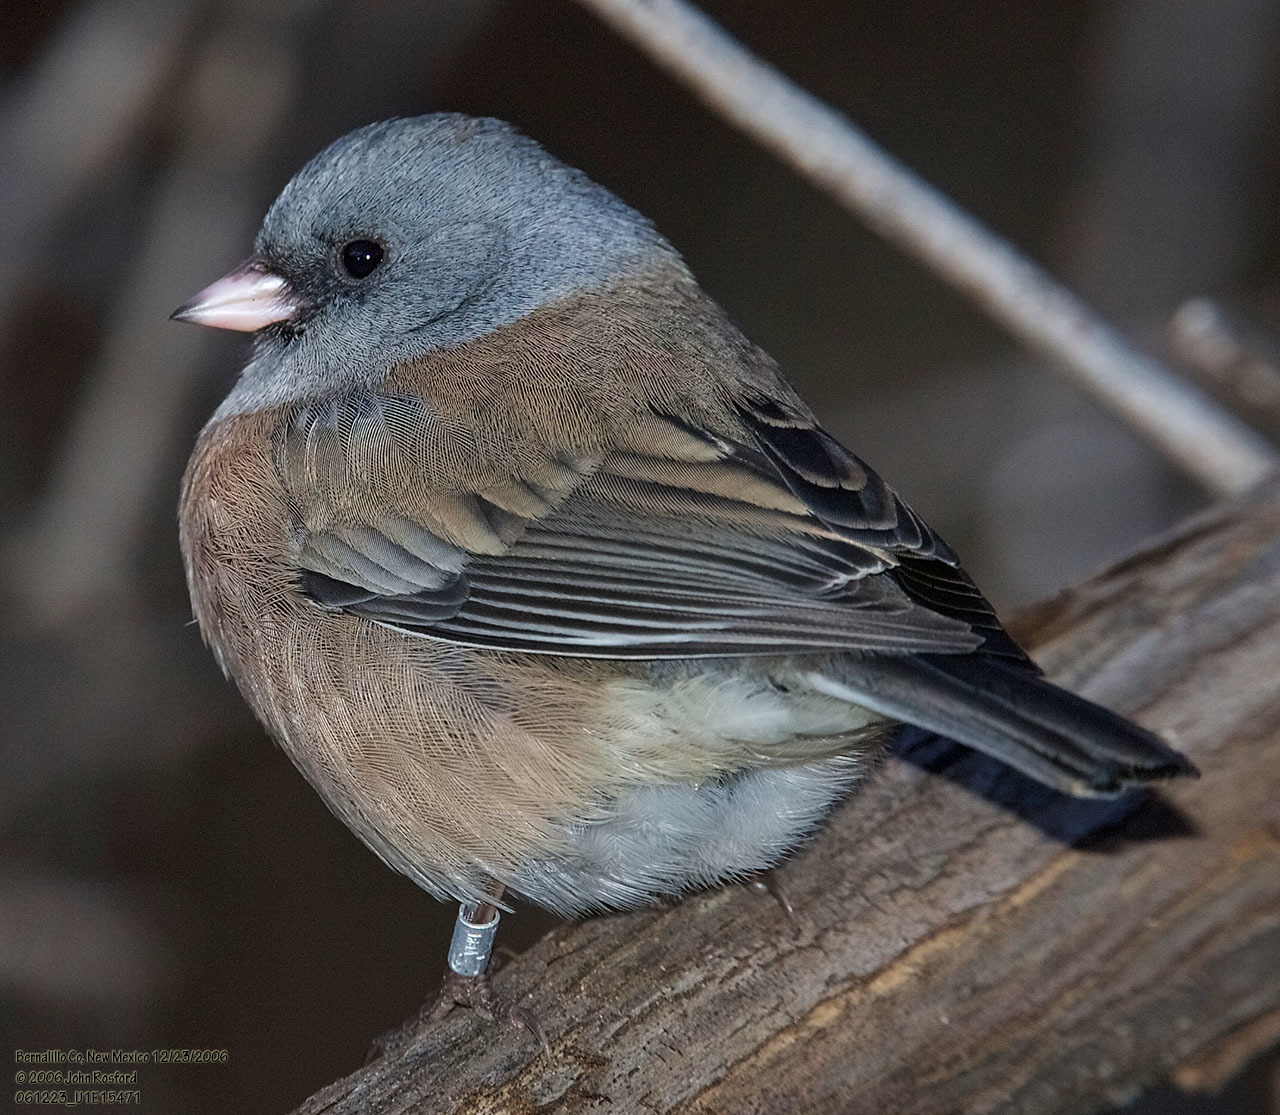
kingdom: Animalia
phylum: Chordata
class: Aves
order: Passeriformes
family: Passerellidae
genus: Junco
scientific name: Junco hyemalis
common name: Dark-eyed junco
